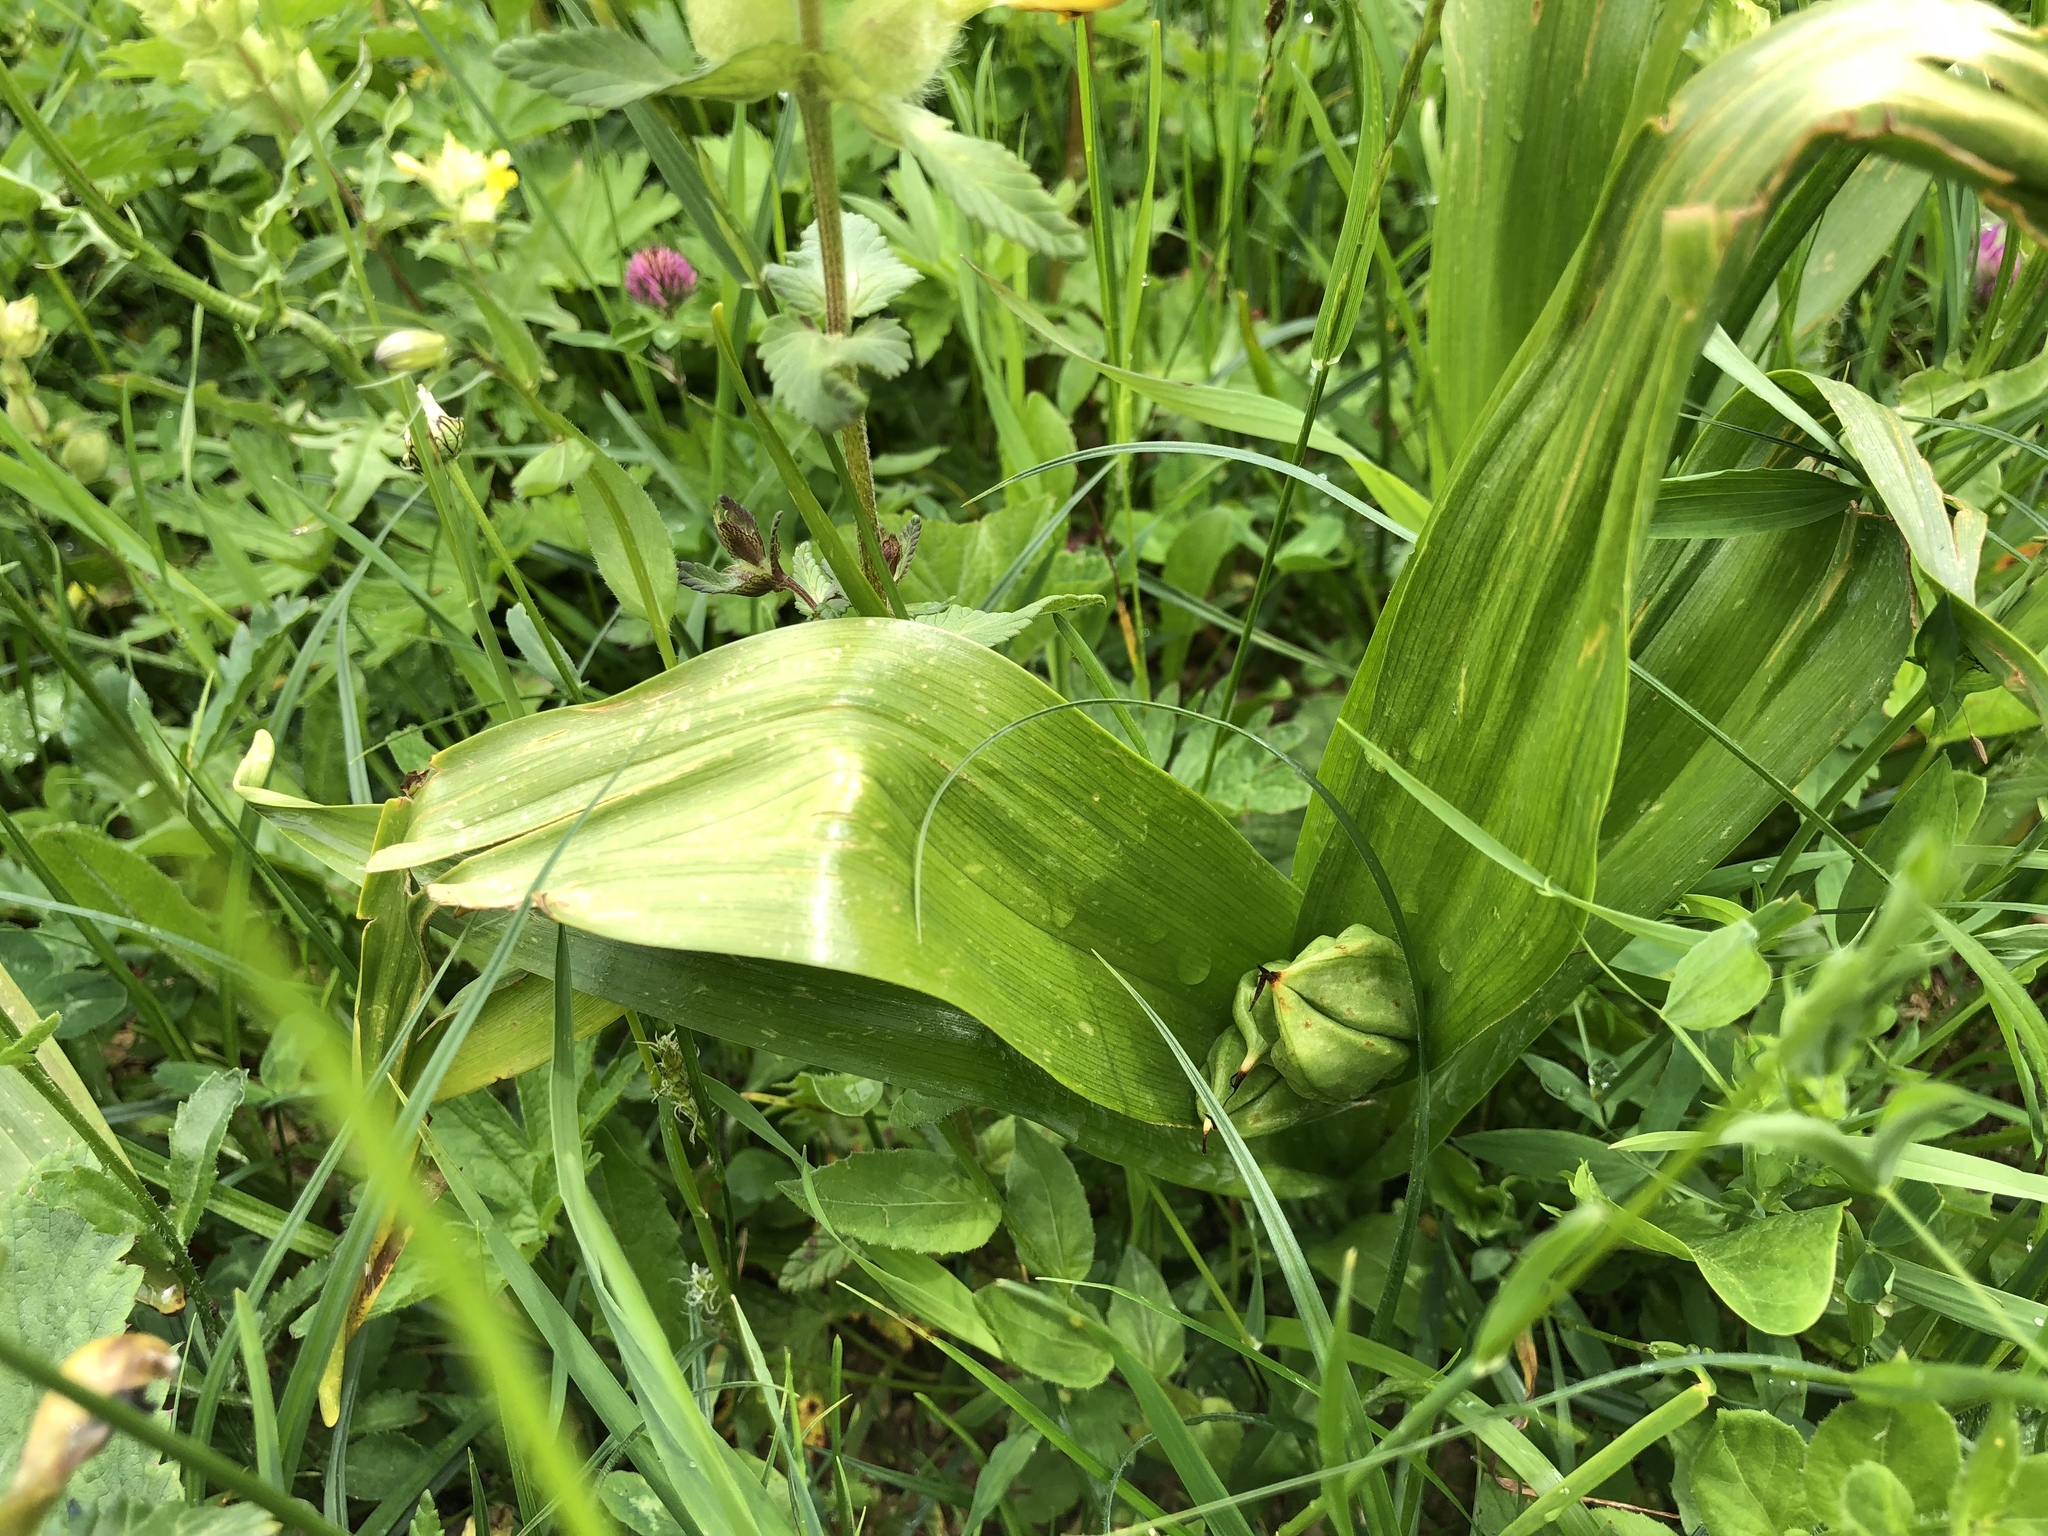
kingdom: Plantae
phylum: Tracheophyta
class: Liliopsida
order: Liliales
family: Colchicaceae
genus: Colchicum
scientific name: Colchicum autumnale
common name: Autumn crocus
